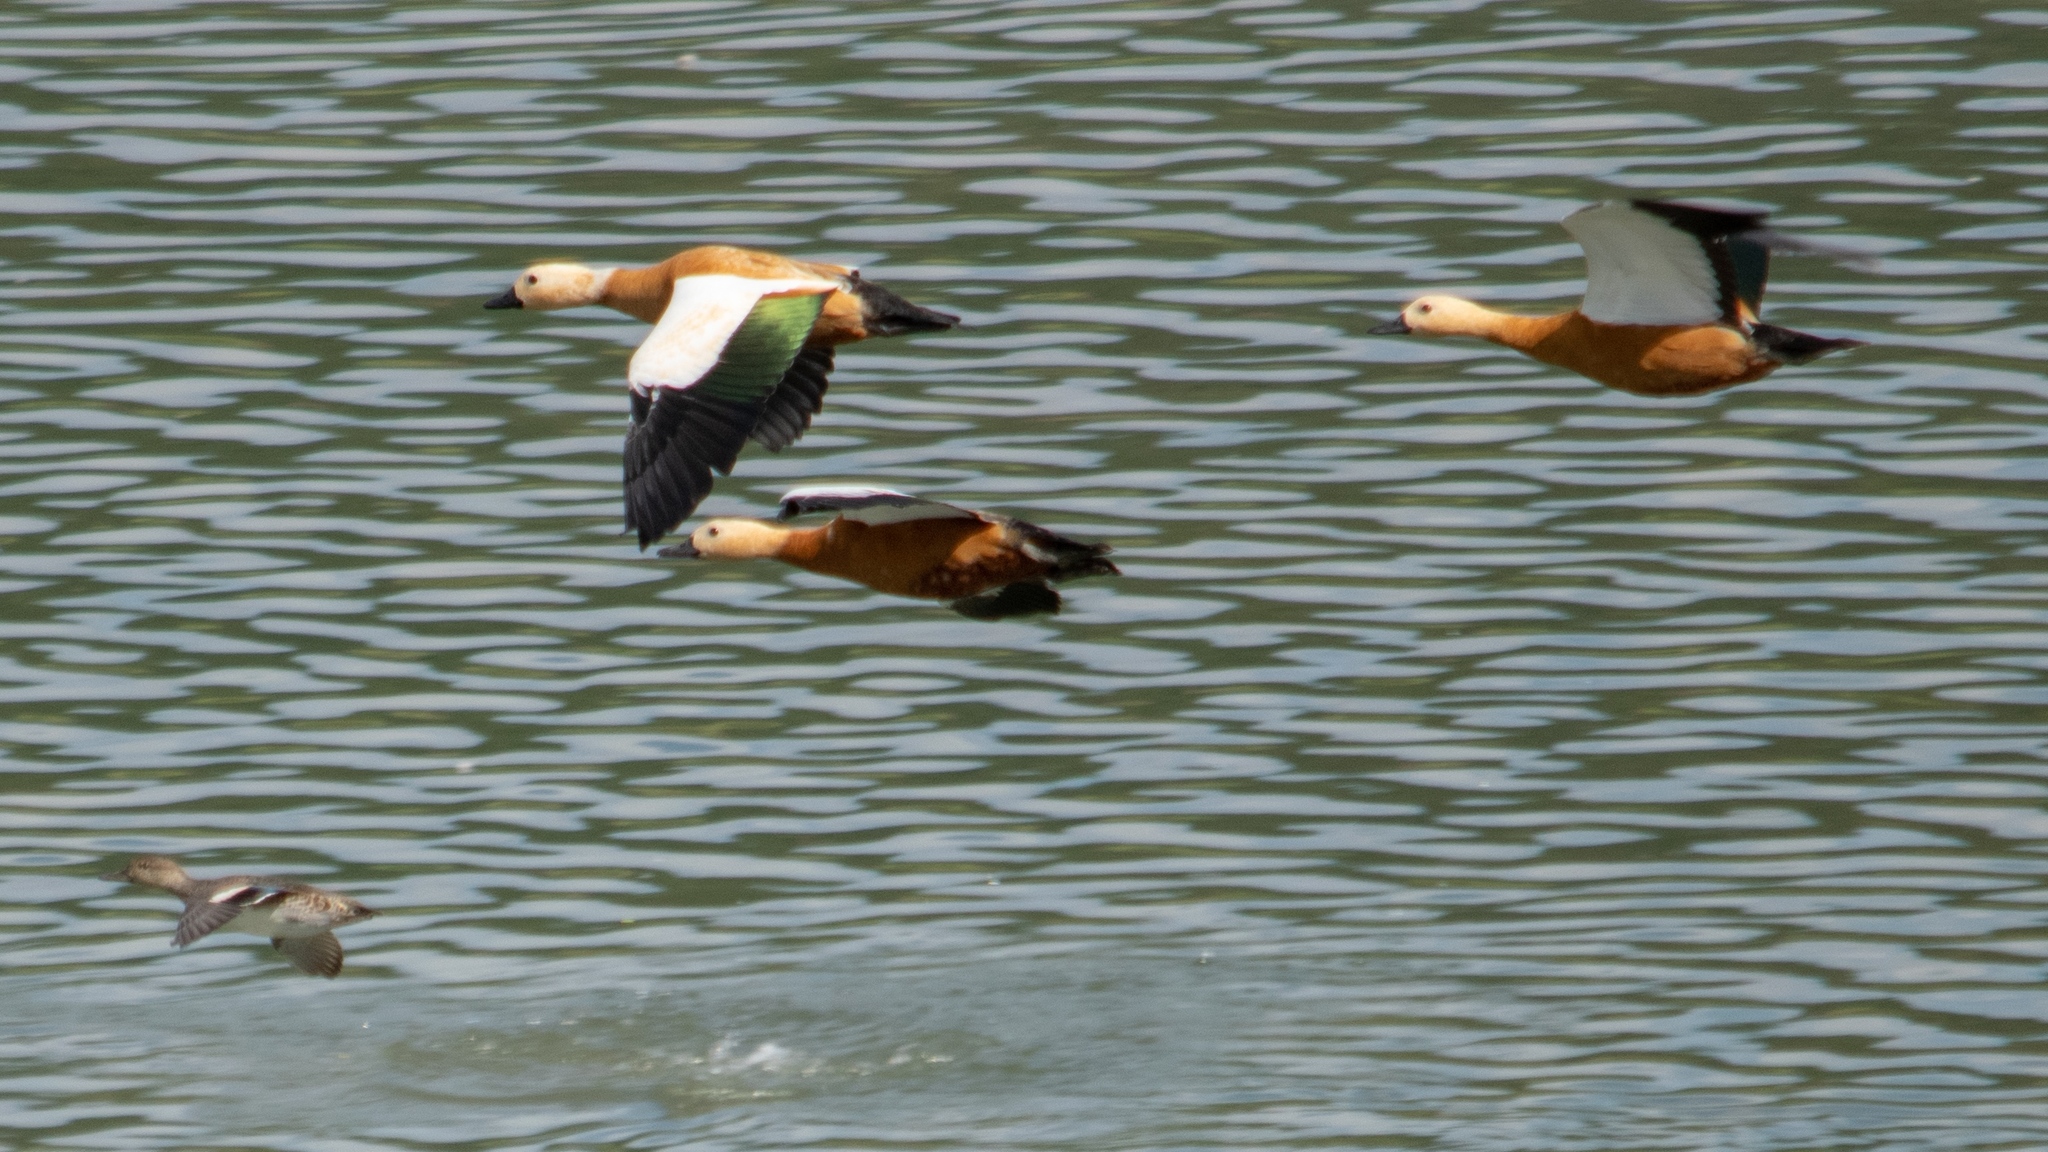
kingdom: Animalia
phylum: Chordata
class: Aves
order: Anseriformes
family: Anatidae
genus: Tadorna
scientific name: Tadorna ferruginea
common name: Ruddy shelduck
